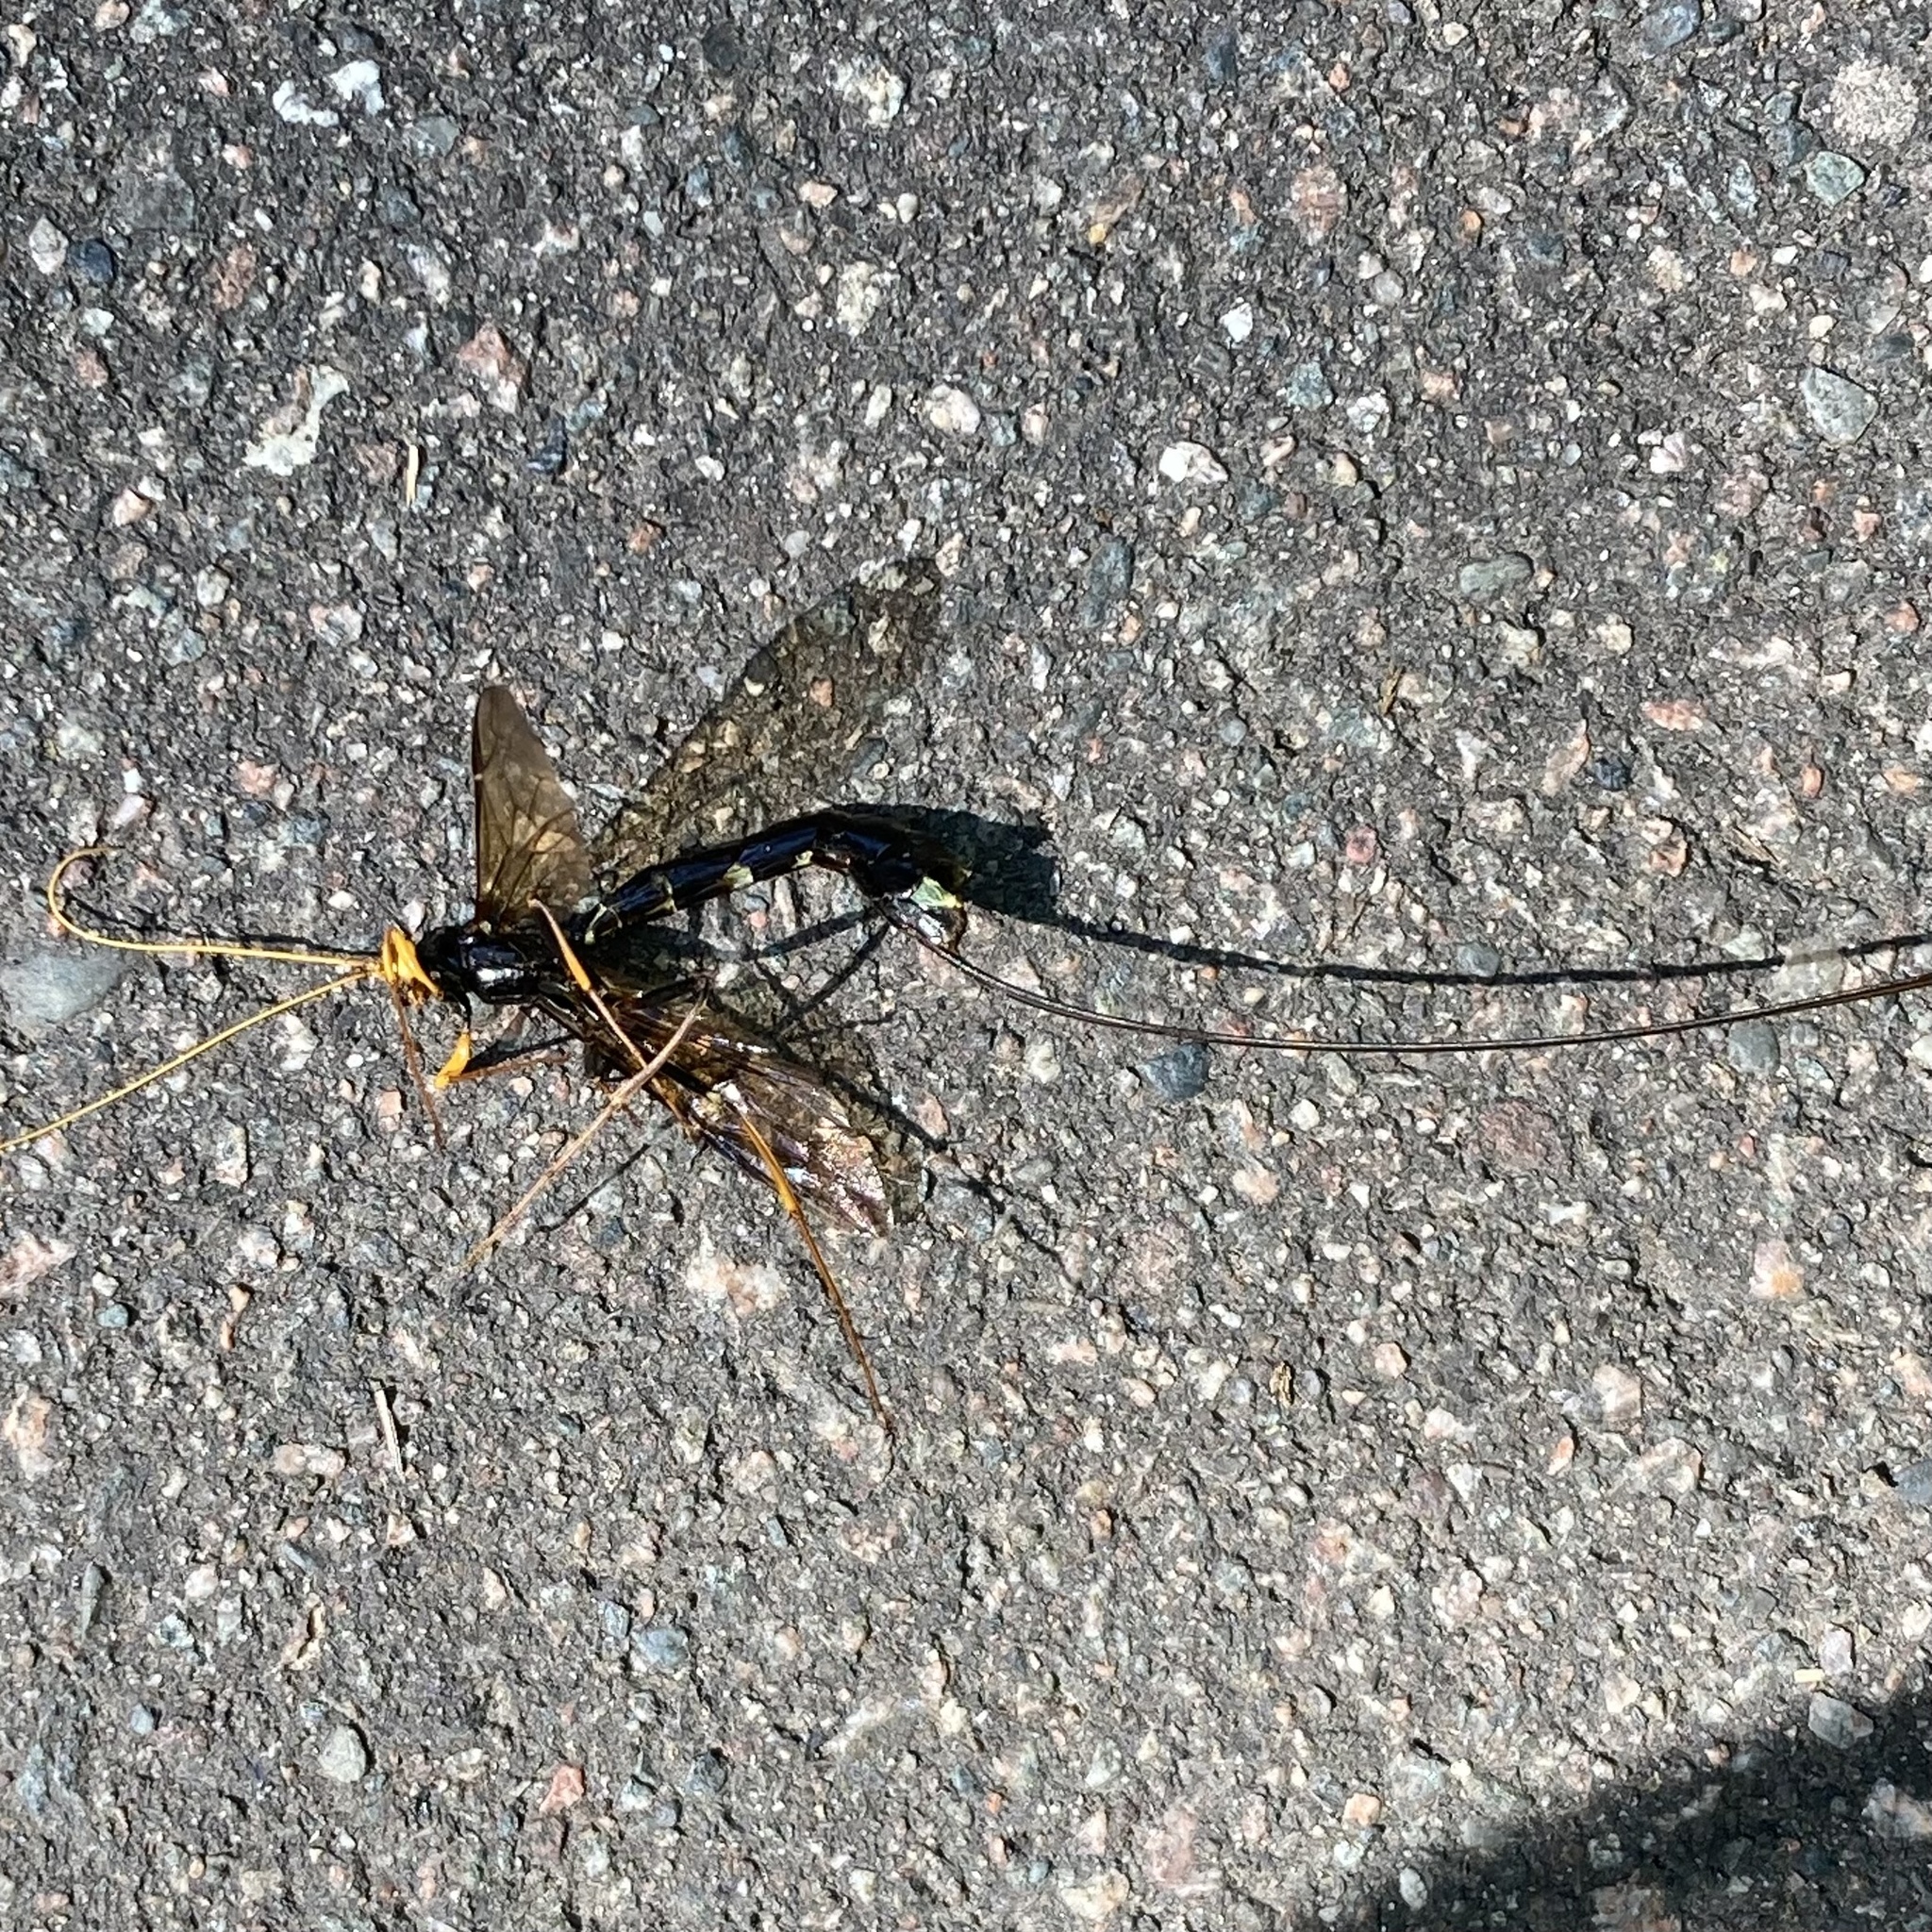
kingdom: Animalia
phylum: Arthropoda
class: Insecta
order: Hymenoptera
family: Ichneumonidae
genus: Megarhyssa
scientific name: Megarhyssa atrata
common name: Black giant ichneumonid wasp
